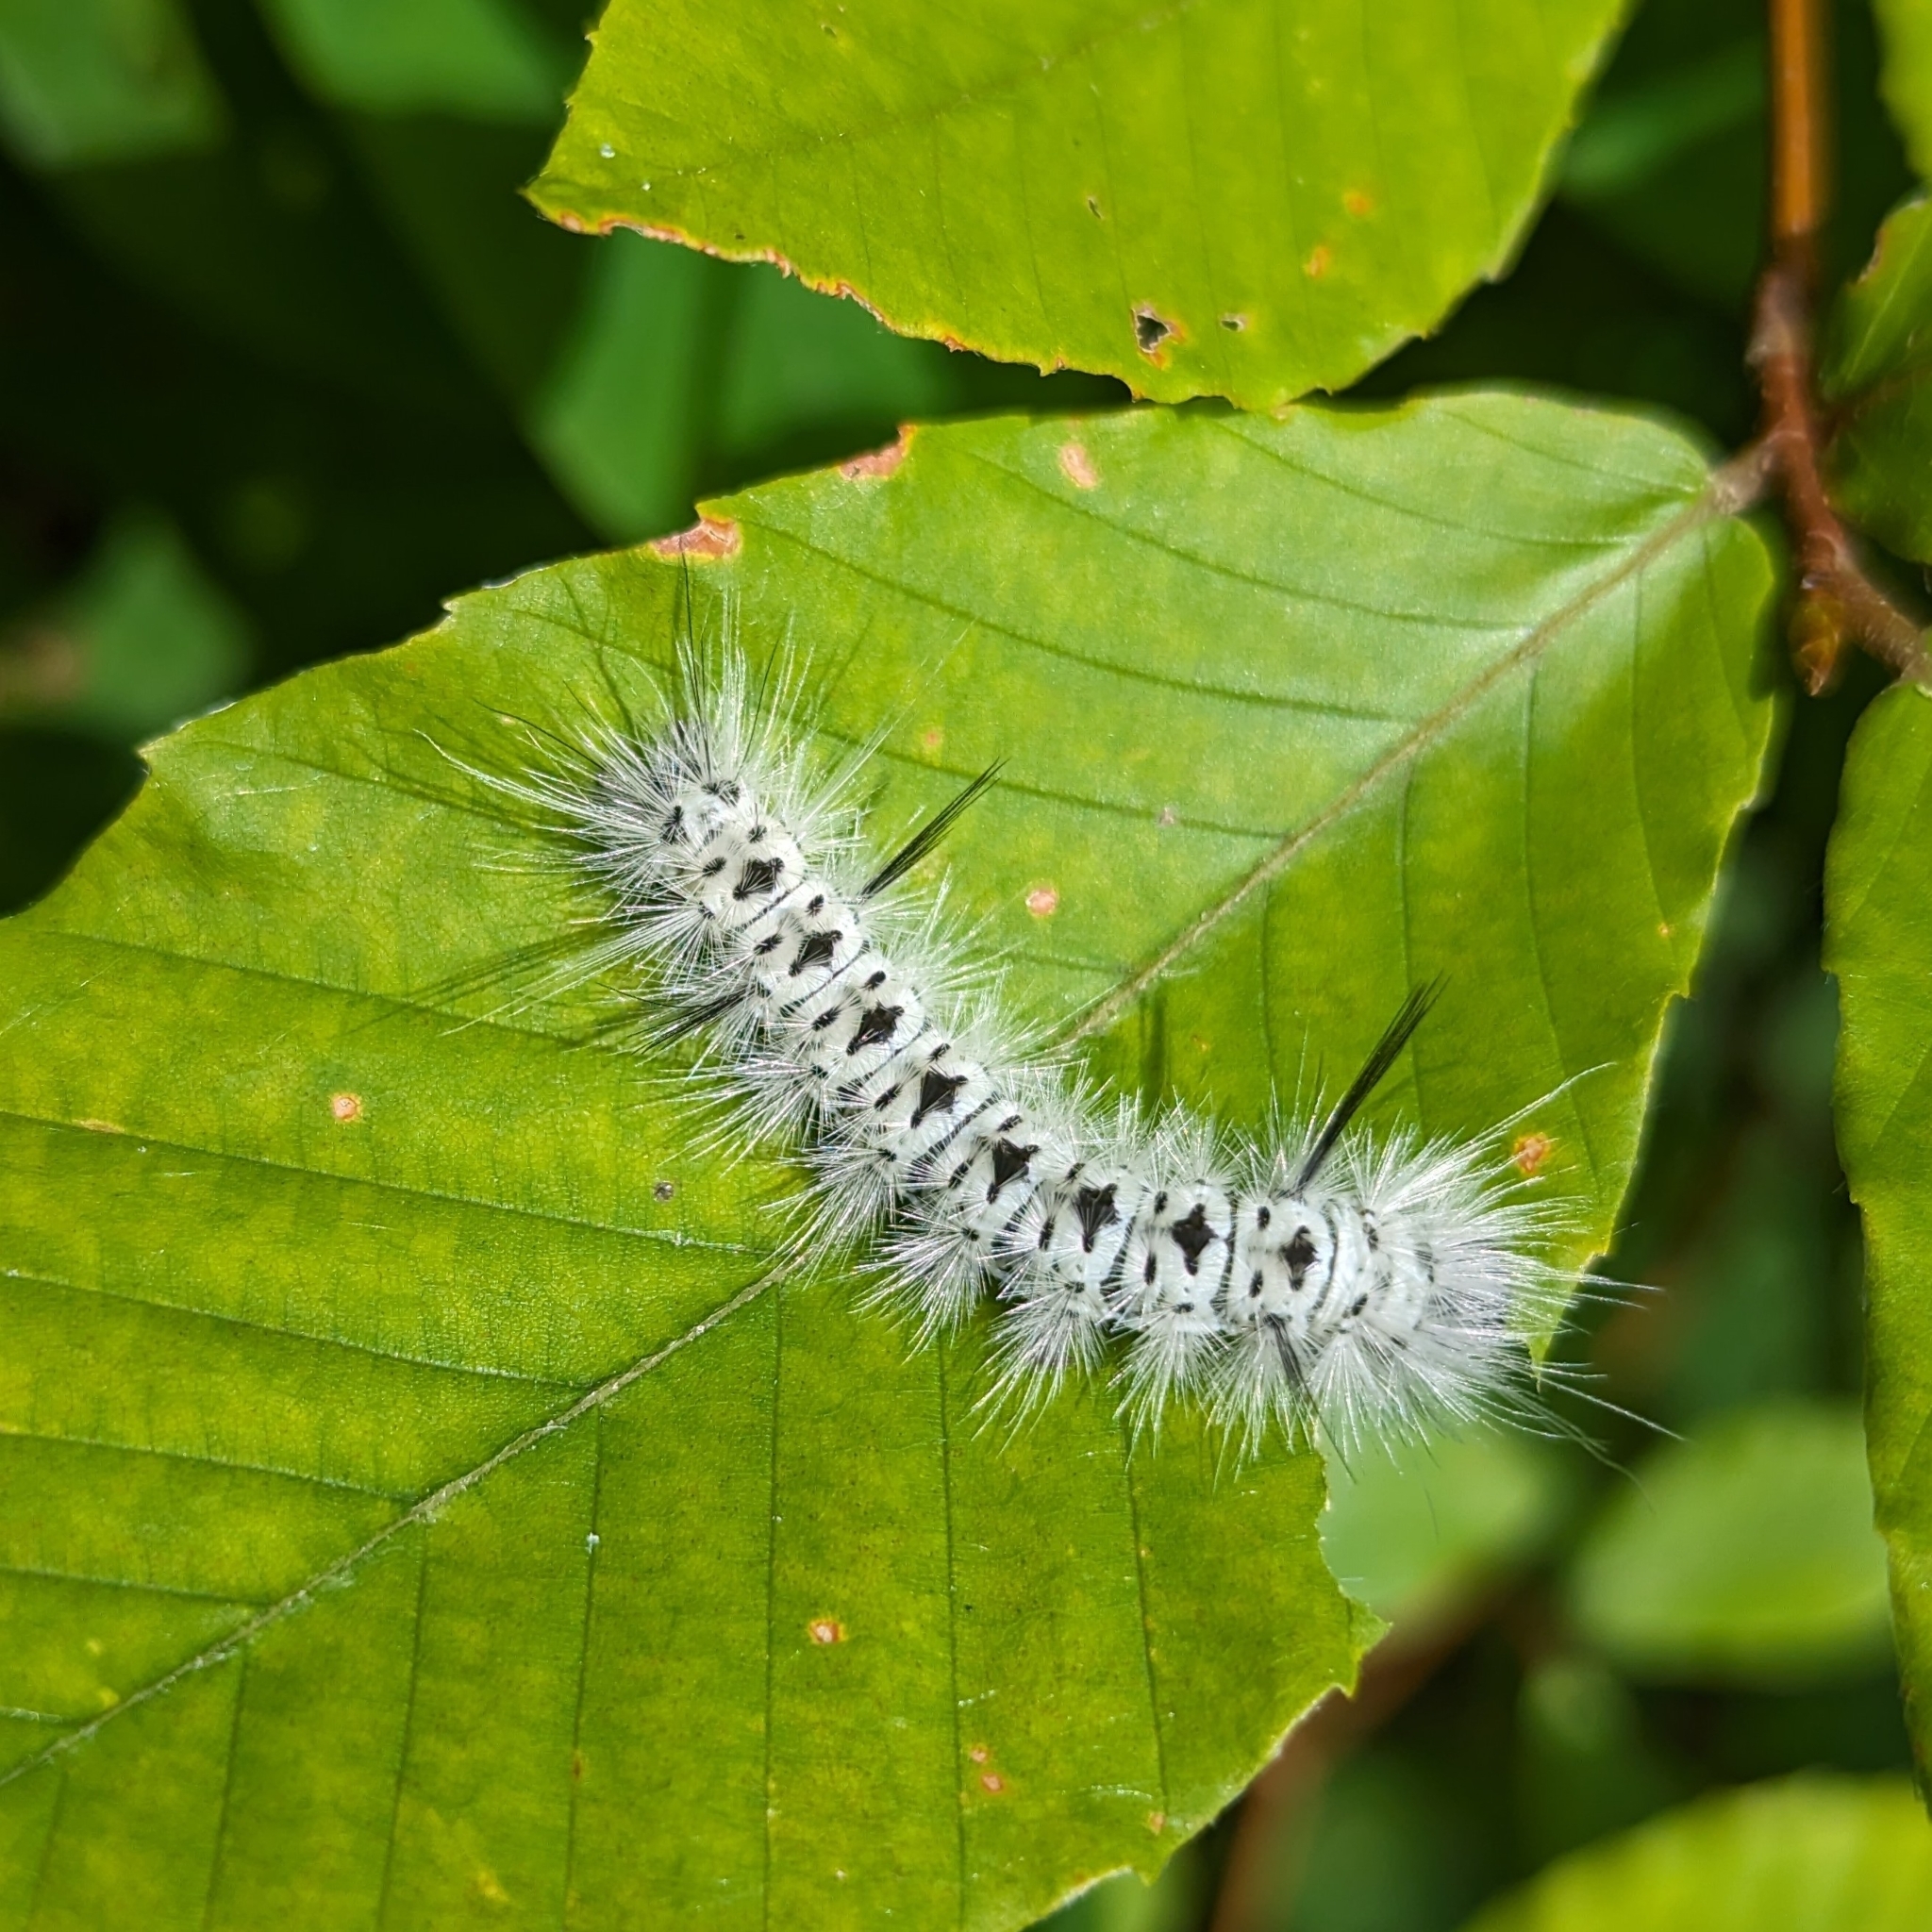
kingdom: Animalia
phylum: Arthropoda
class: Insecta
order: Lepidoptera
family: Erebidae
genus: Lophocampa
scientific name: Lophocampa caryae
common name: Hickory tussock moth
